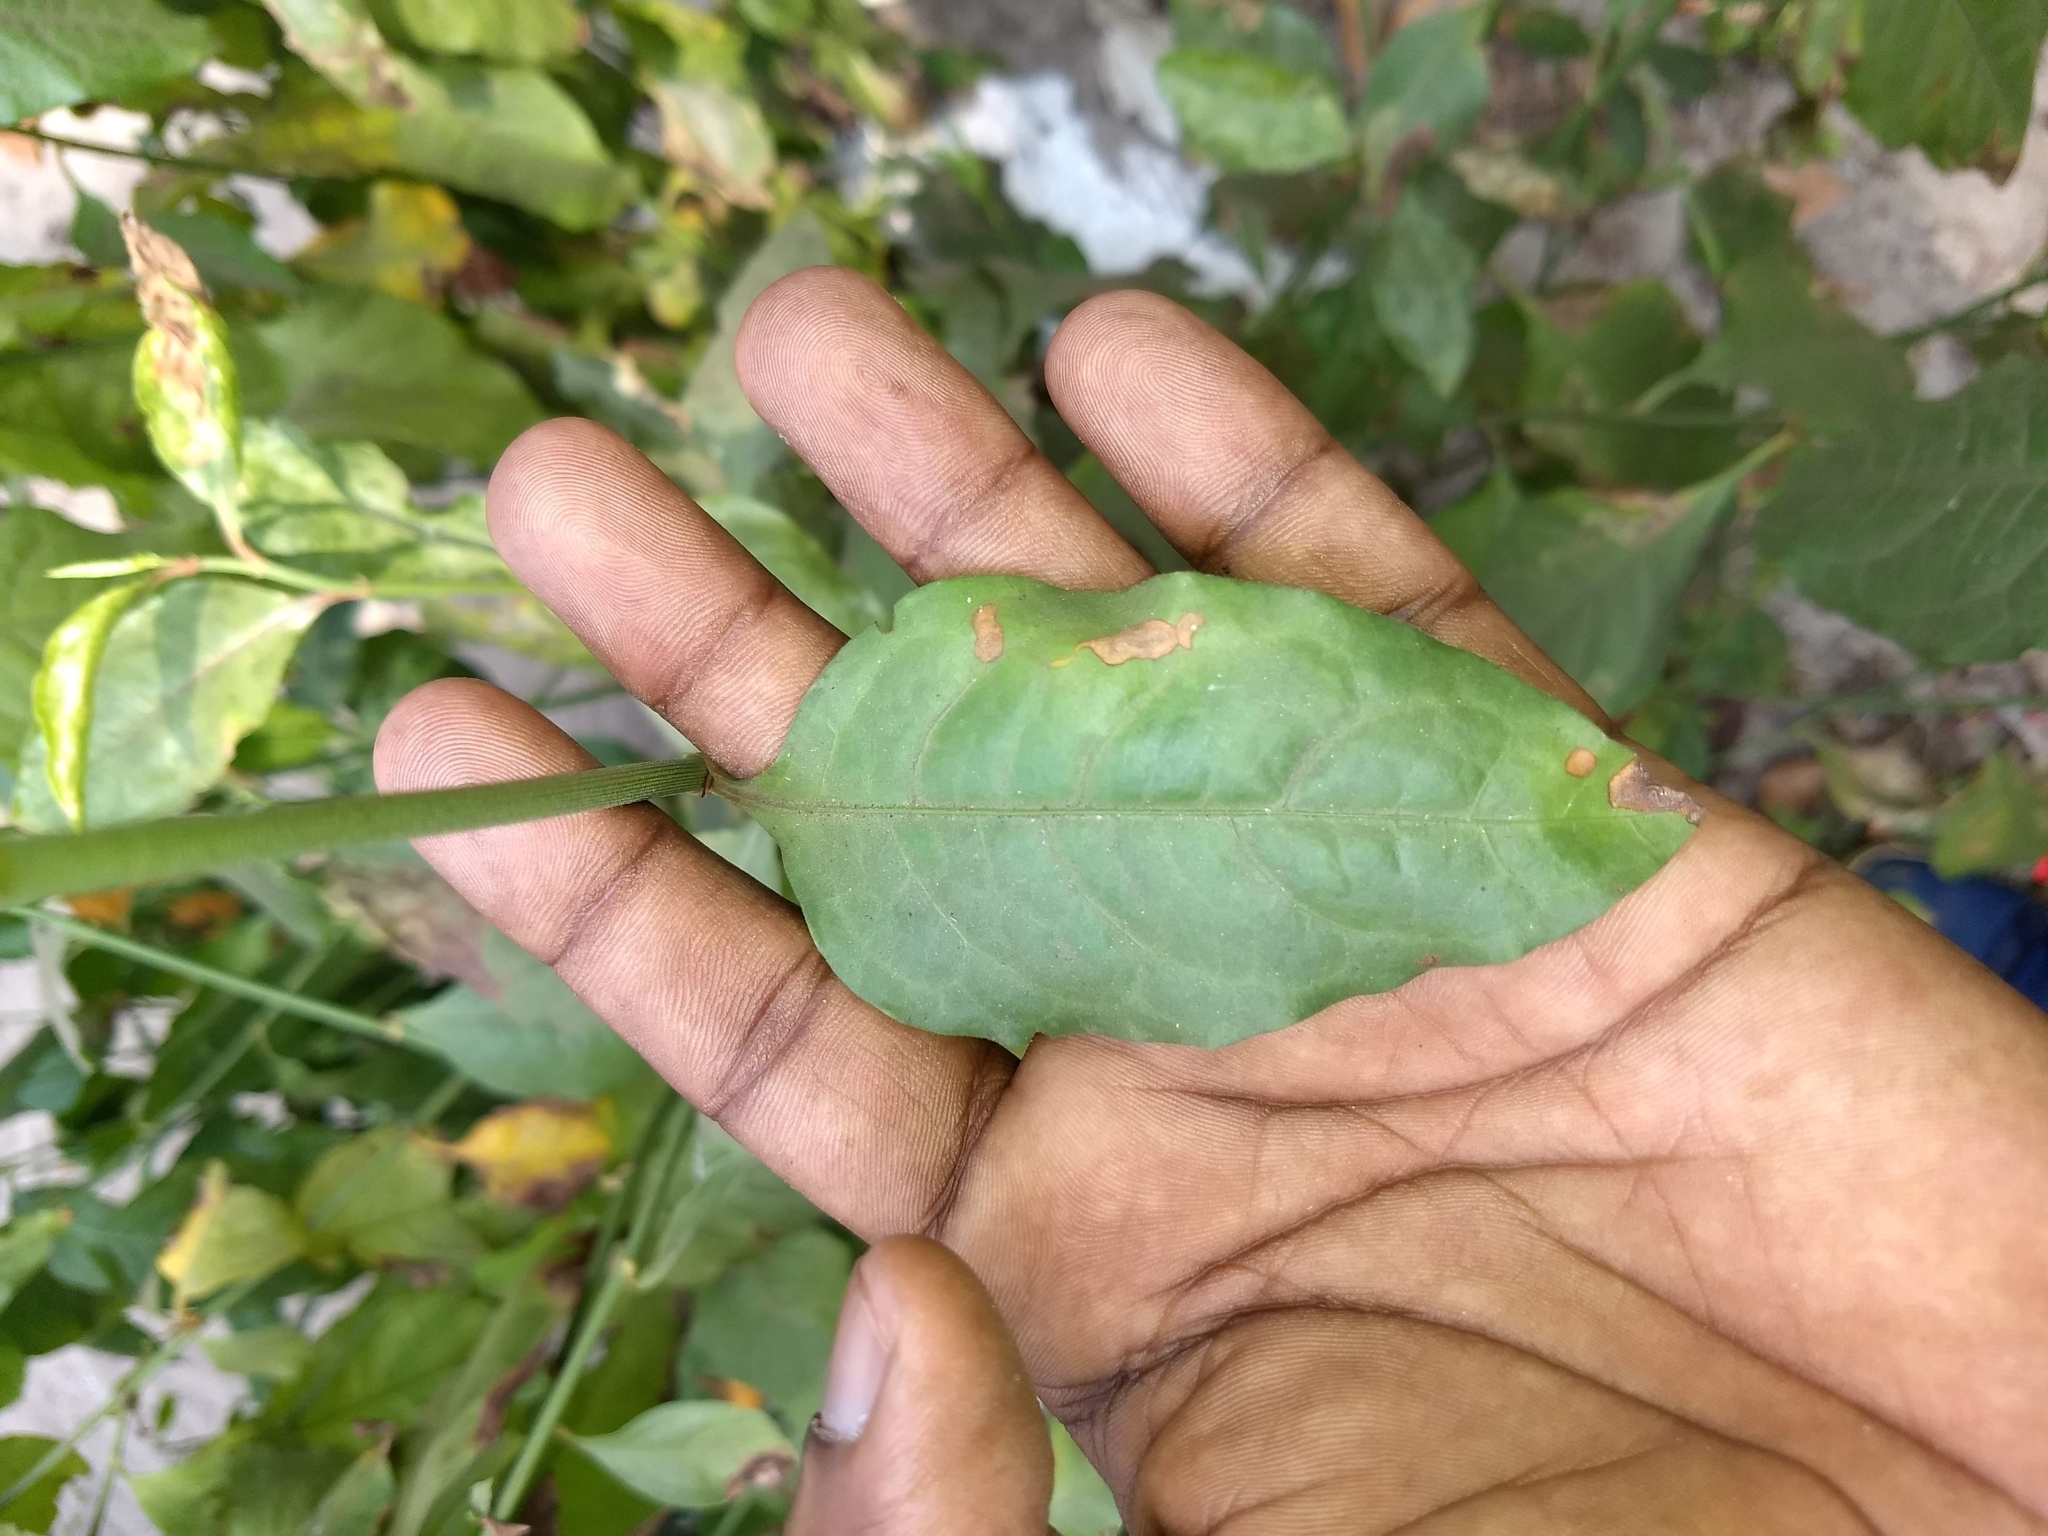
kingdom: Plantae
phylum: Tracheophyta
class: Magnoliopsida
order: Caryophyllales
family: Plumbaginaceae
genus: Plumbago
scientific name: Plumbago indica
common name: Indian leadwort
